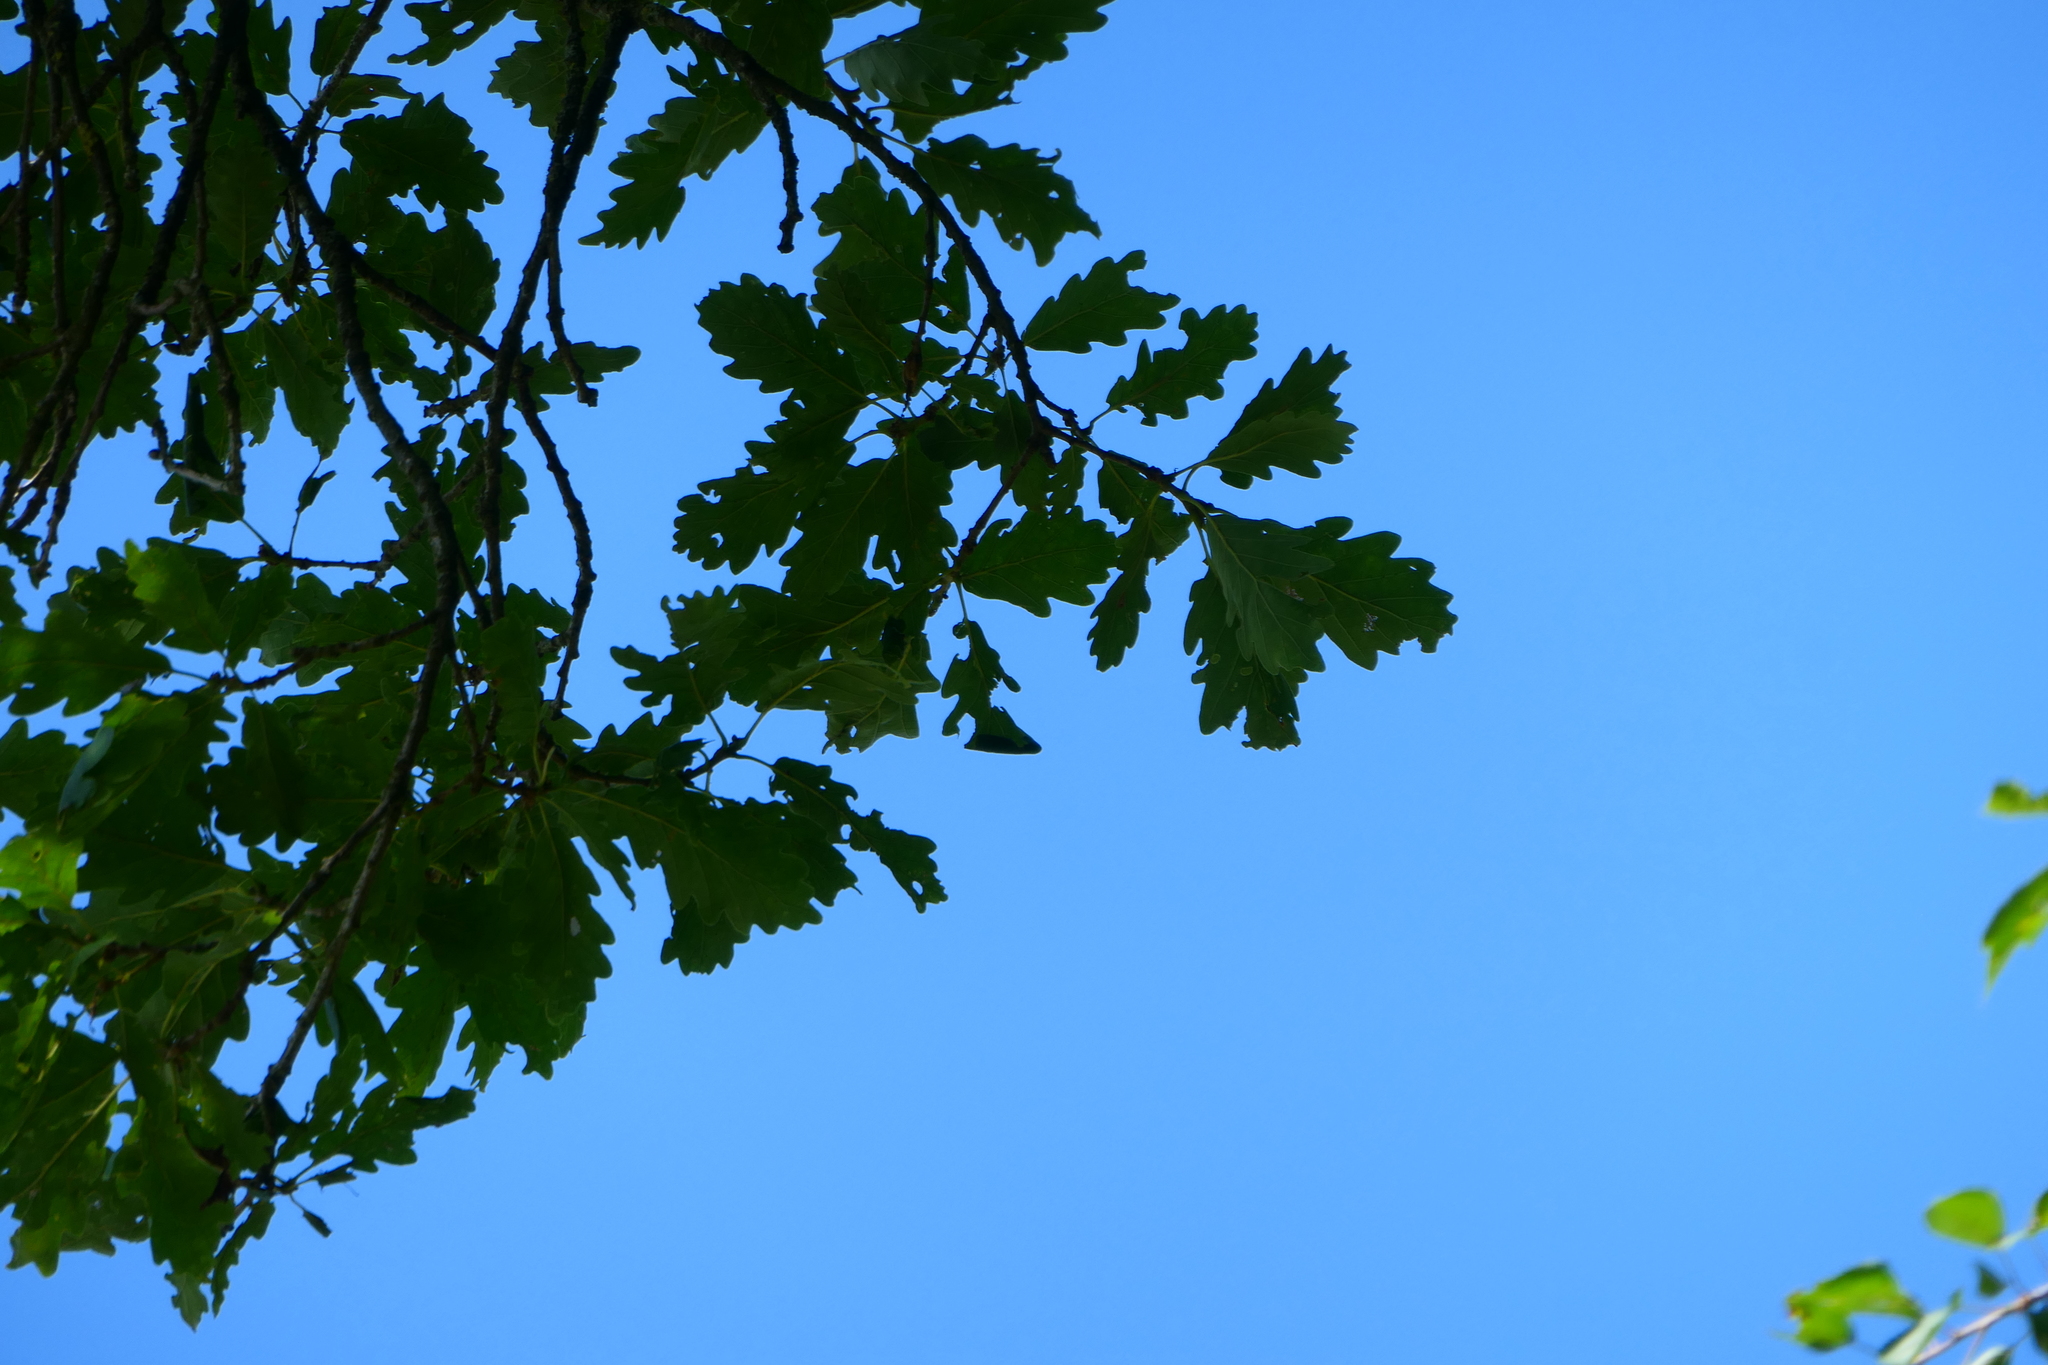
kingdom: Plantae
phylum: Tracheophyta
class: Magnoliopsida
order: Fagales
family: Fagaceae
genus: Quercus
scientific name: Quercus petraea
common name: Sessile oak
